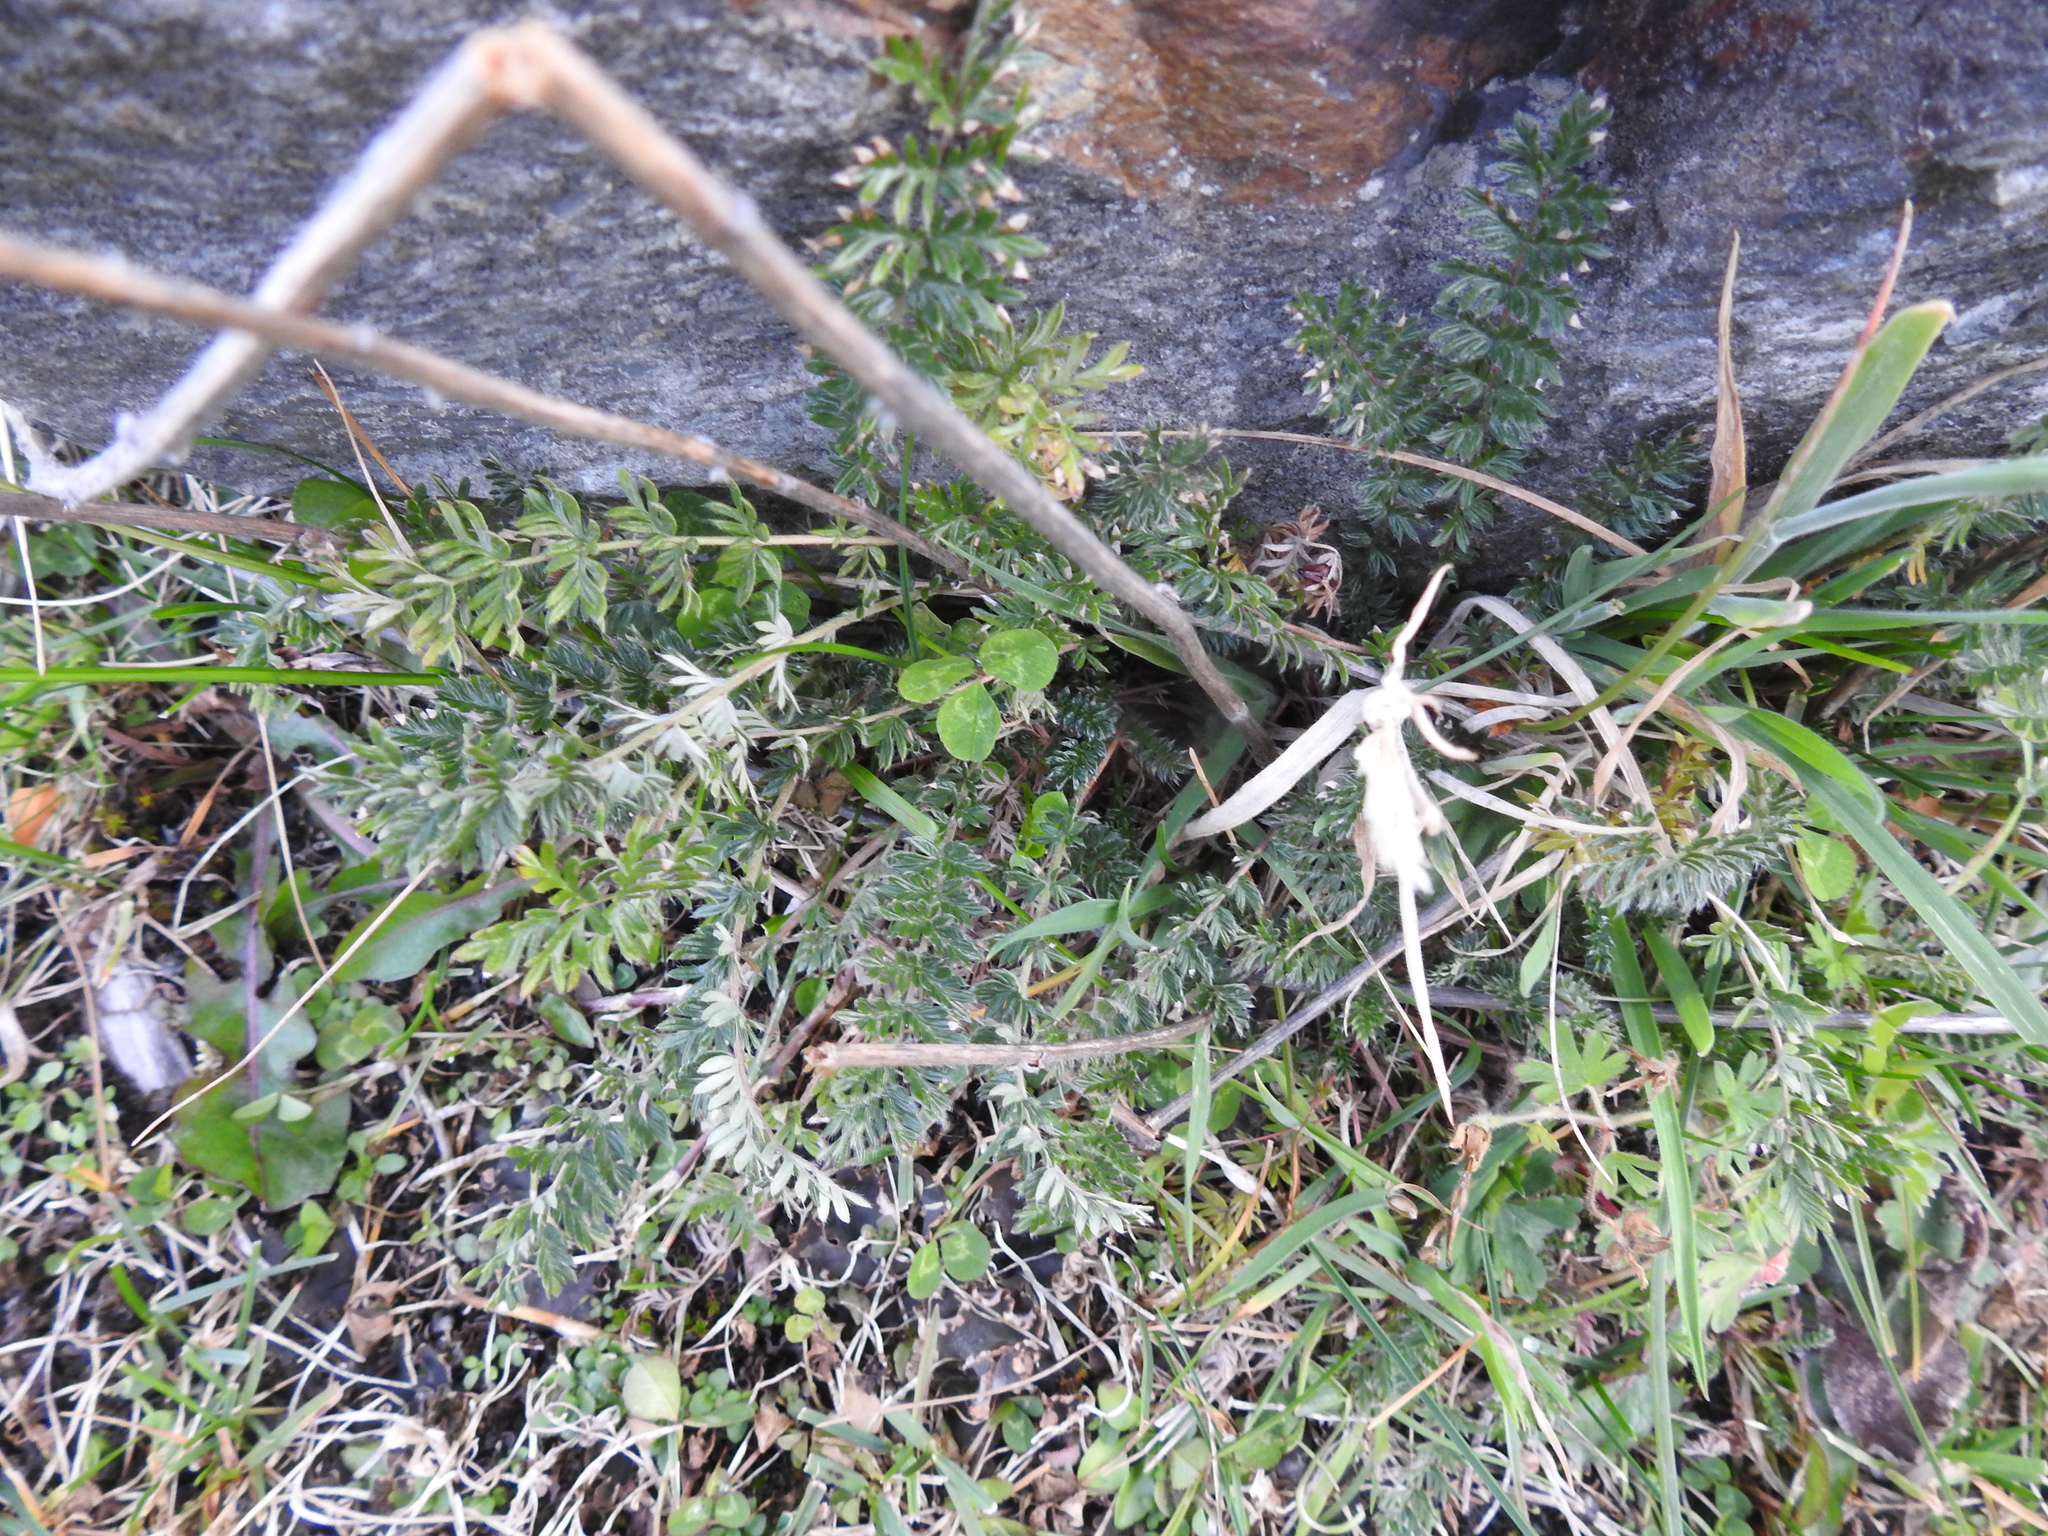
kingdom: Plantae
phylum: Tracheophyta
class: Magnoliopsida
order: Rosales
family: Rosaceae
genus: Acaena
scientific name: Acaena pinnatifida
